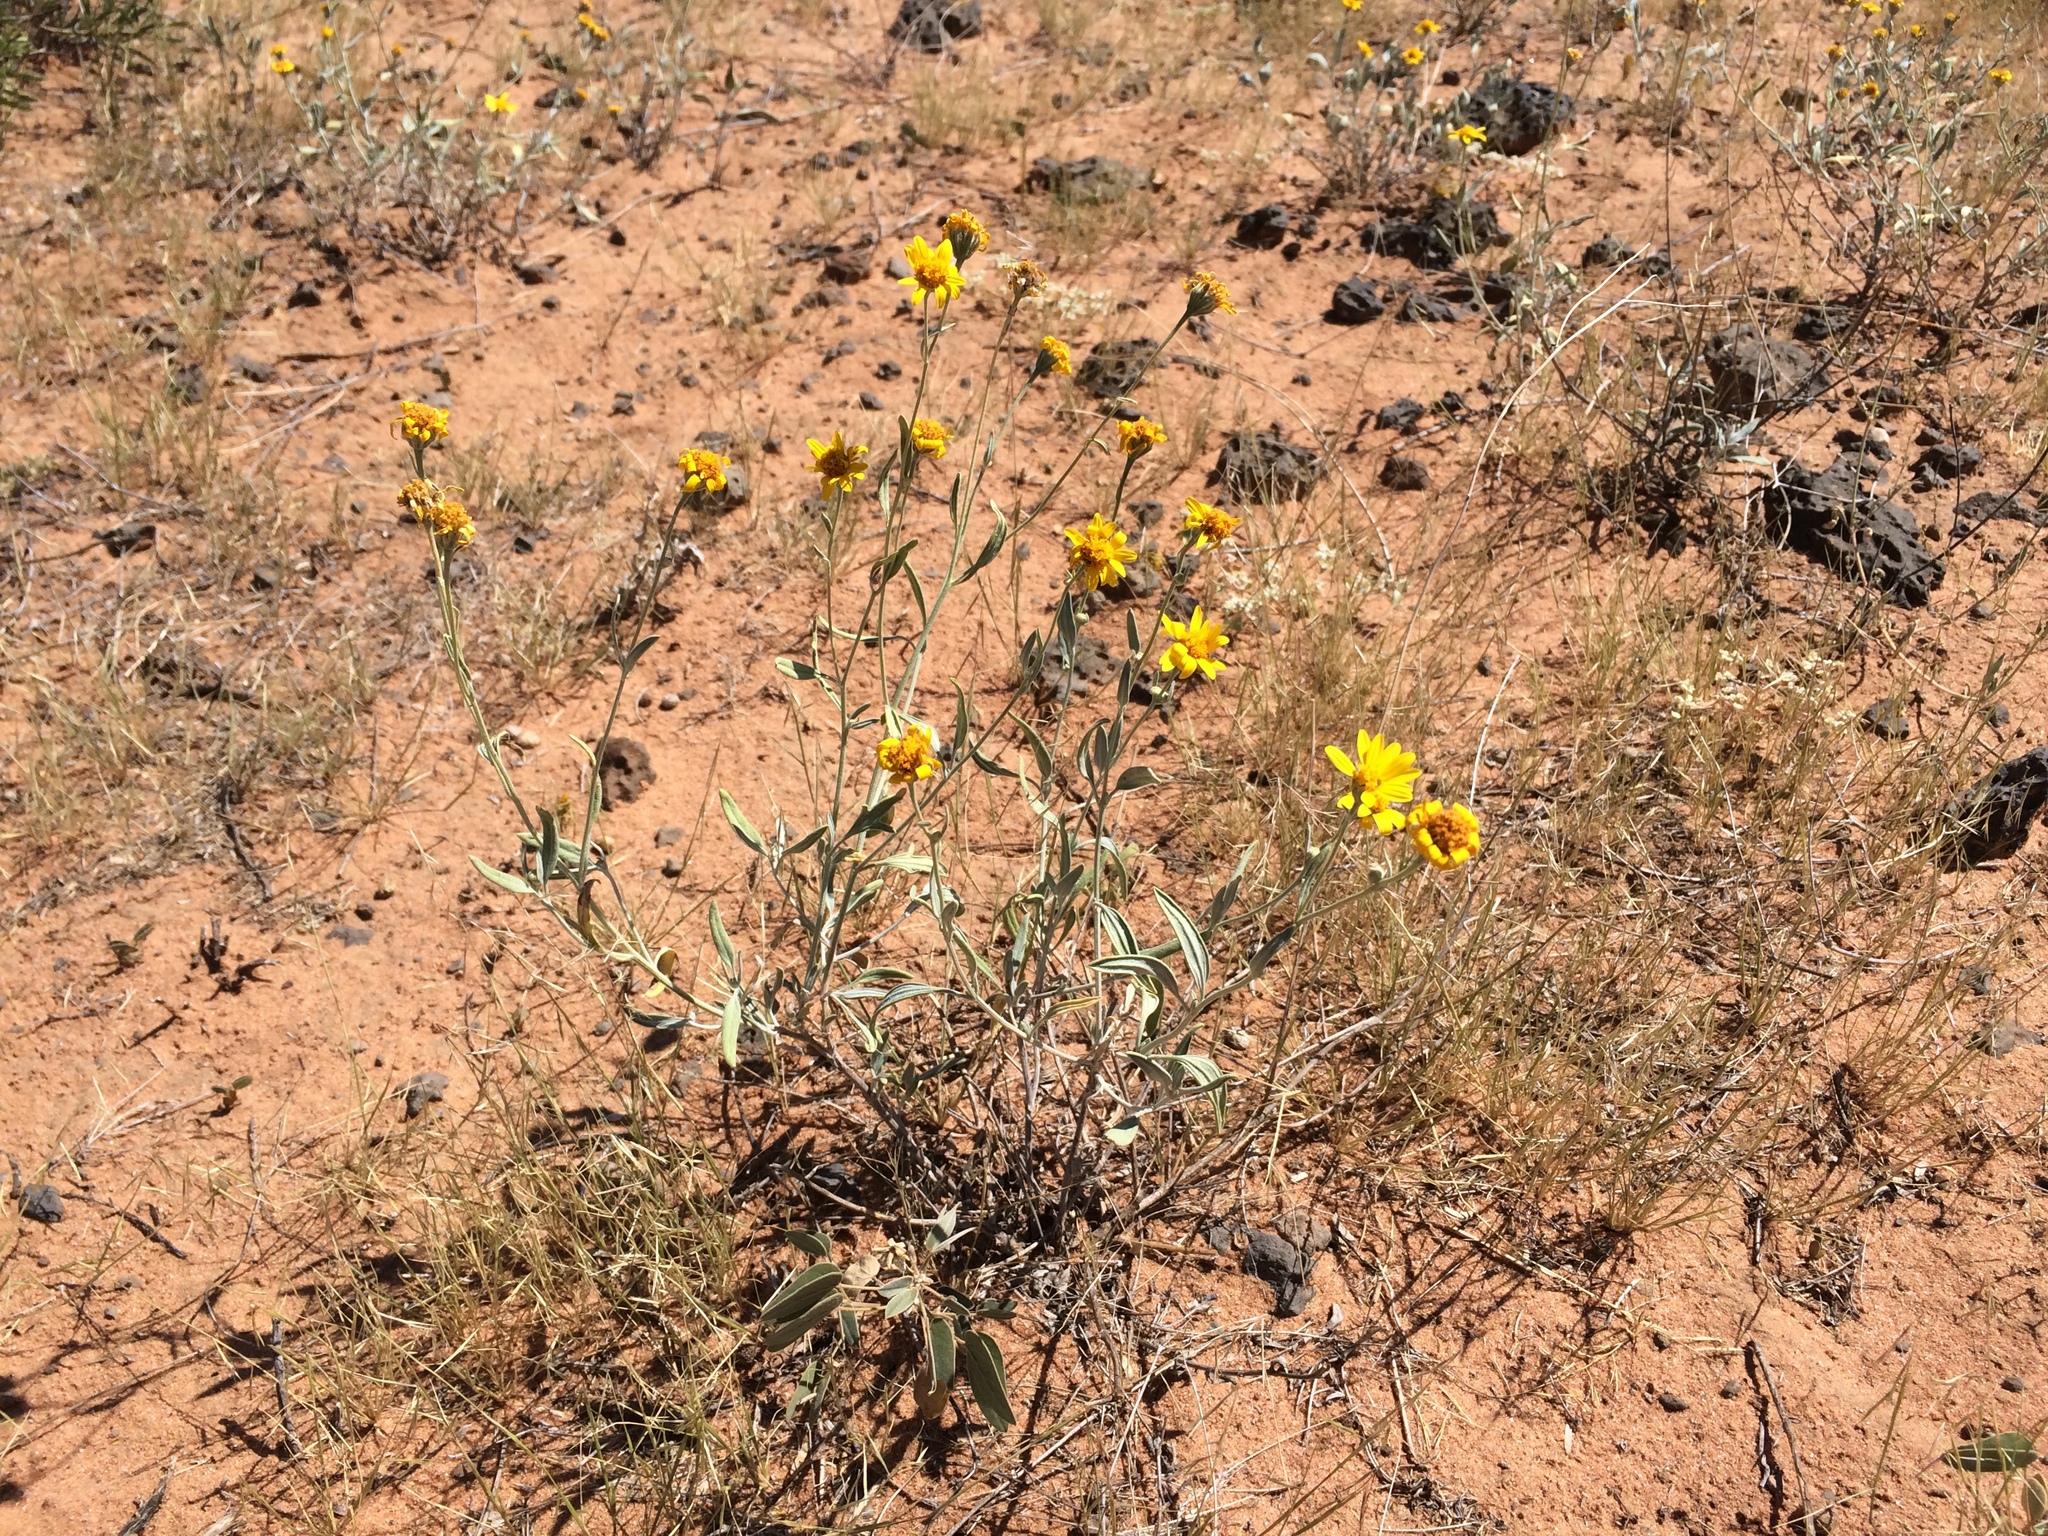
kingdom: Plantae
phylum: Tracheophyta
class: Magnoliopsida
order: Asterales
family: Asteraceae
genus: Picradeniopsis
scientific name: Picradeniopsis absinthifolia
